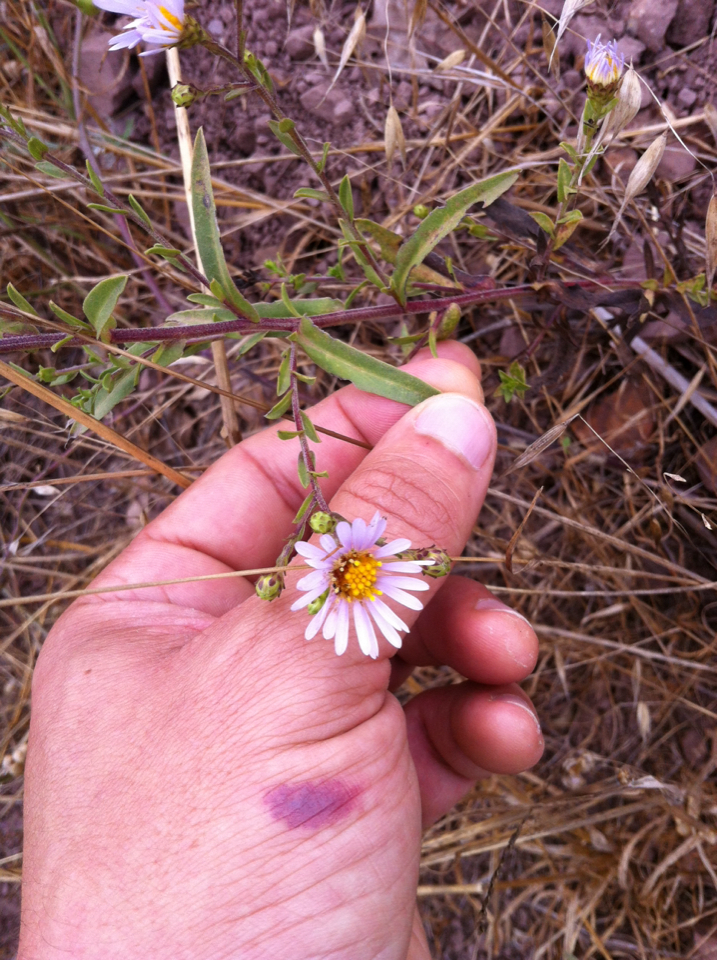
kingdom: Plantae
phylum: Tracheophyta
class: Magnoliopsida
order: Asterales
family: Asteraceae
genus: Symphyotrichum
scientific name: Symphyotrichum chilense
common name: Pacific aster
